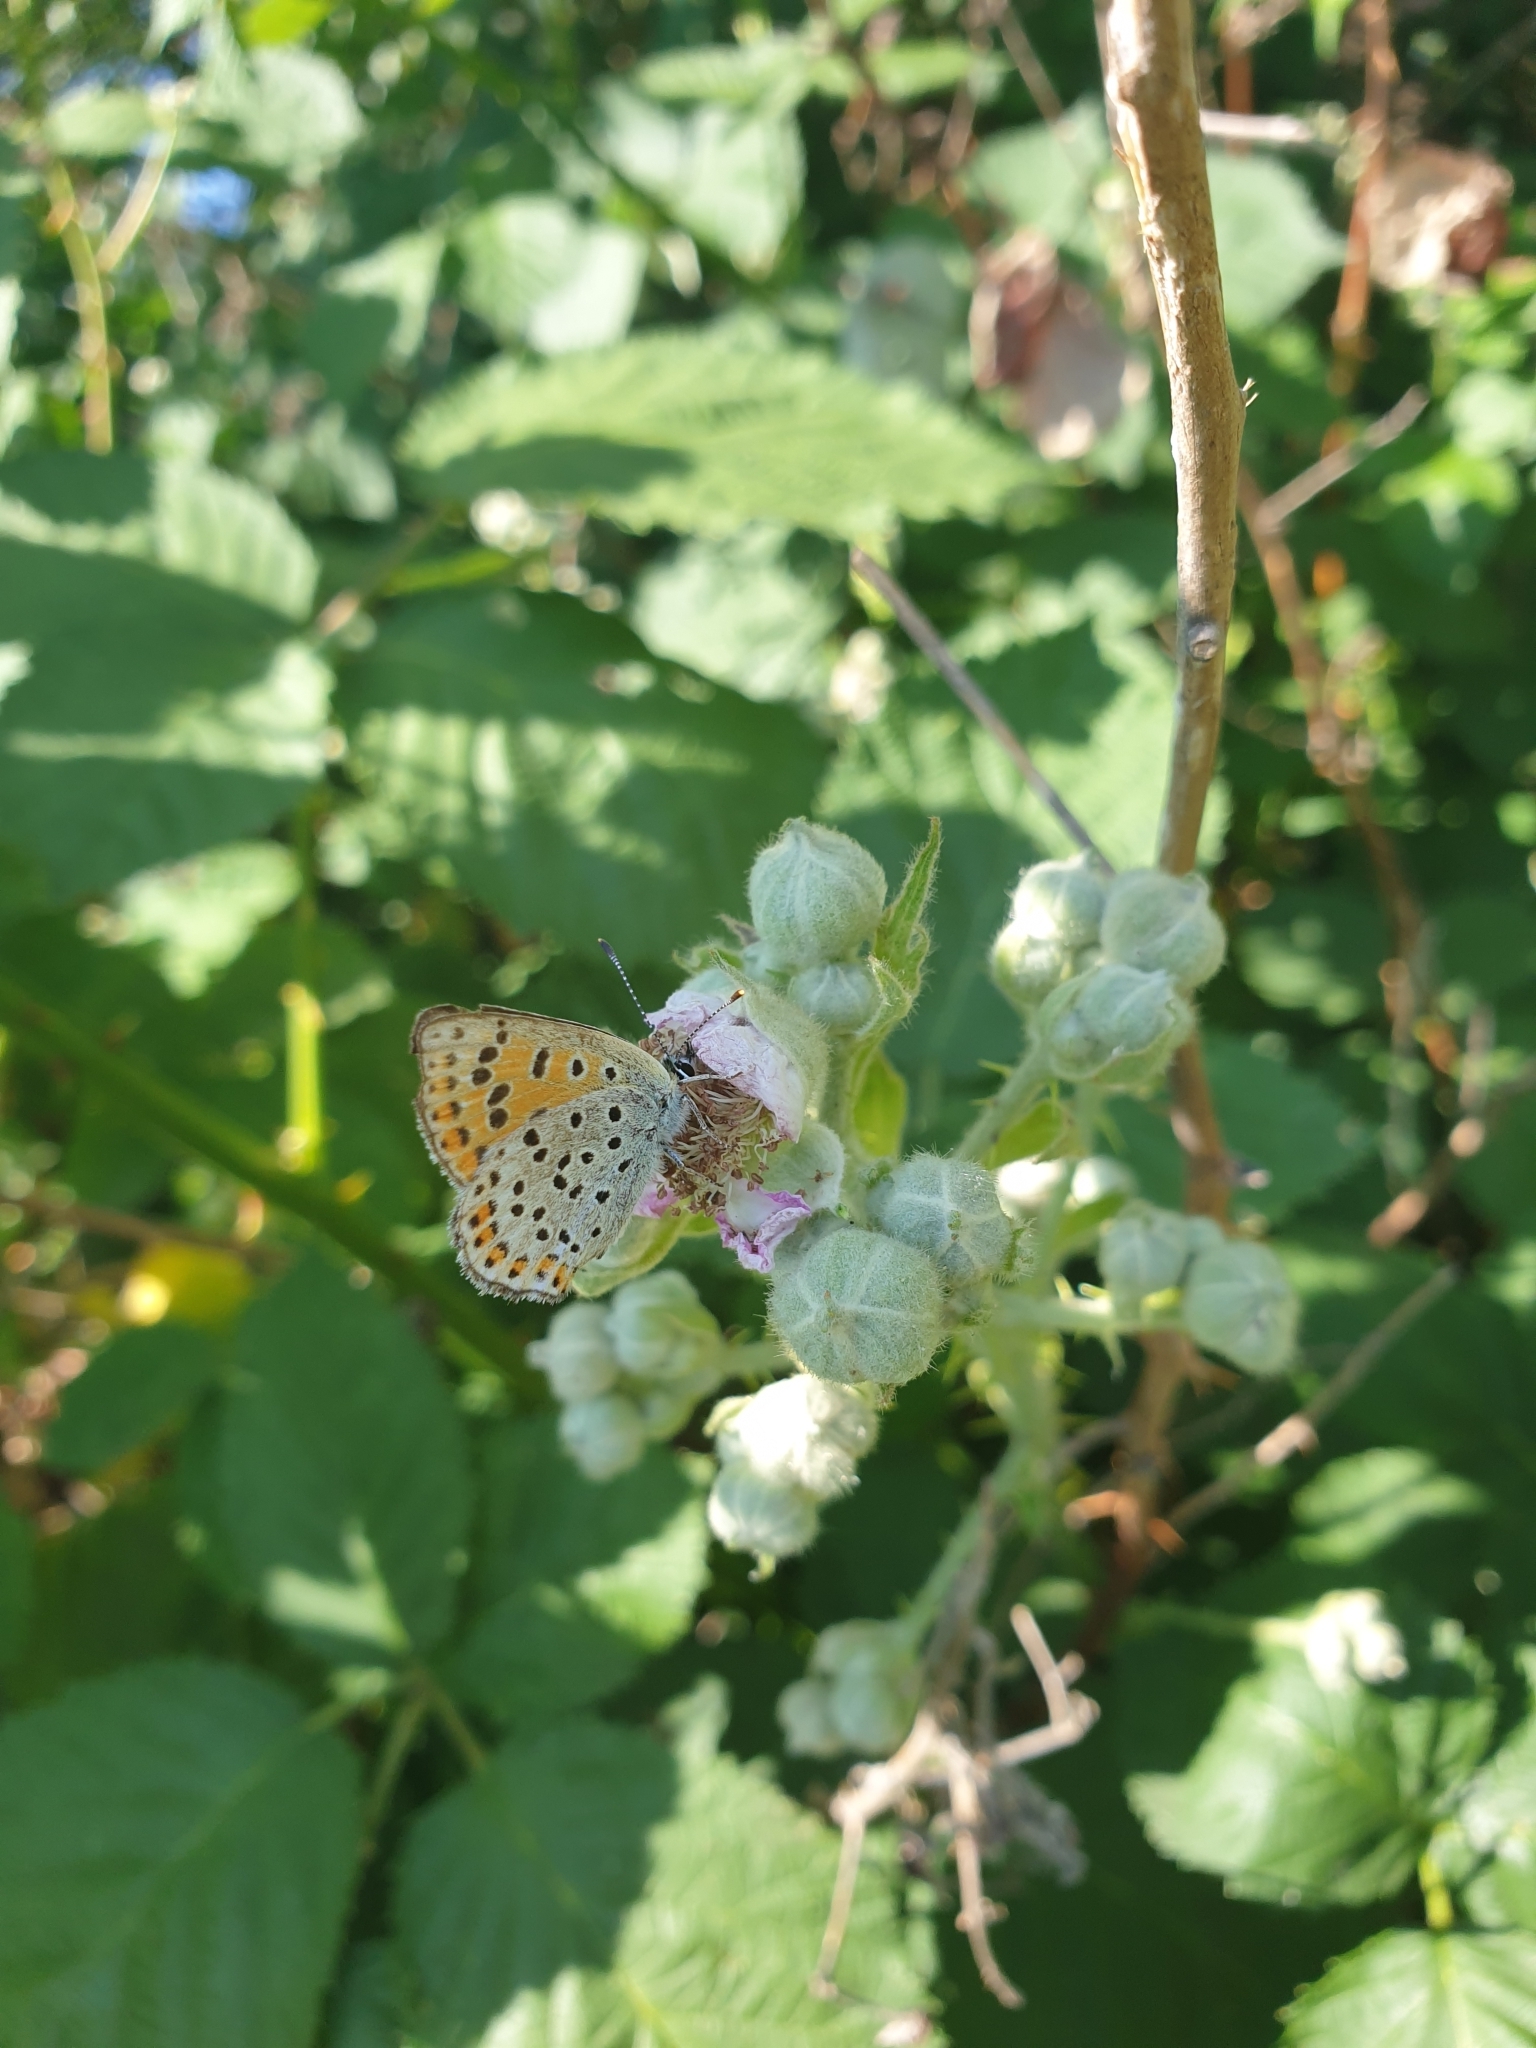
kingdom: Animalia
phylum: Arthropoda
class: Insecta
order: Lepidoptera
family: Lycaenidae
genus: Loweia
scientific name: Loweia tityrus
